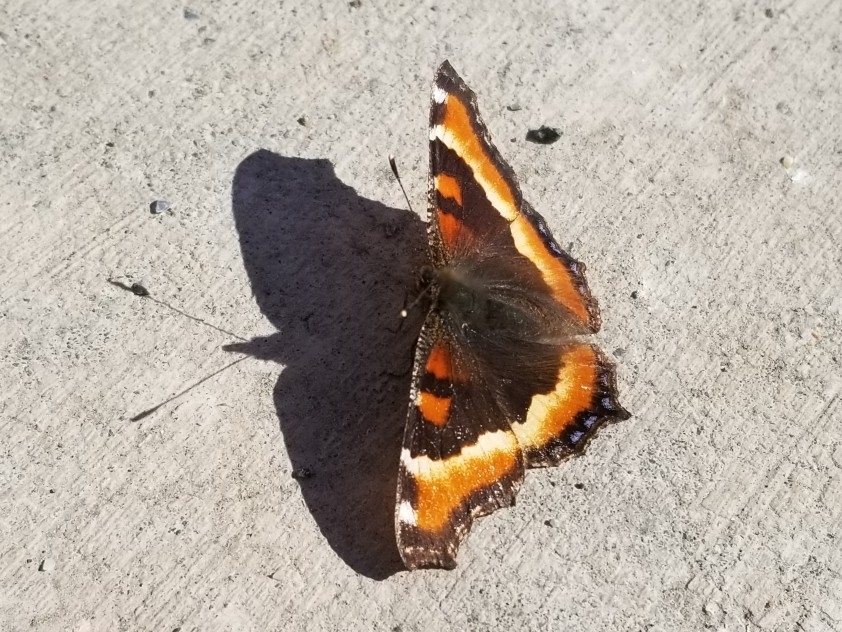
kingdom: Animalia
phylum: Arthropoda
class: Insecta
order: Lepidoptera
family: Nymphalidae
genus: Aglais
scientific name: Aglais milberti
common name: Milbert's tortoiseshell
